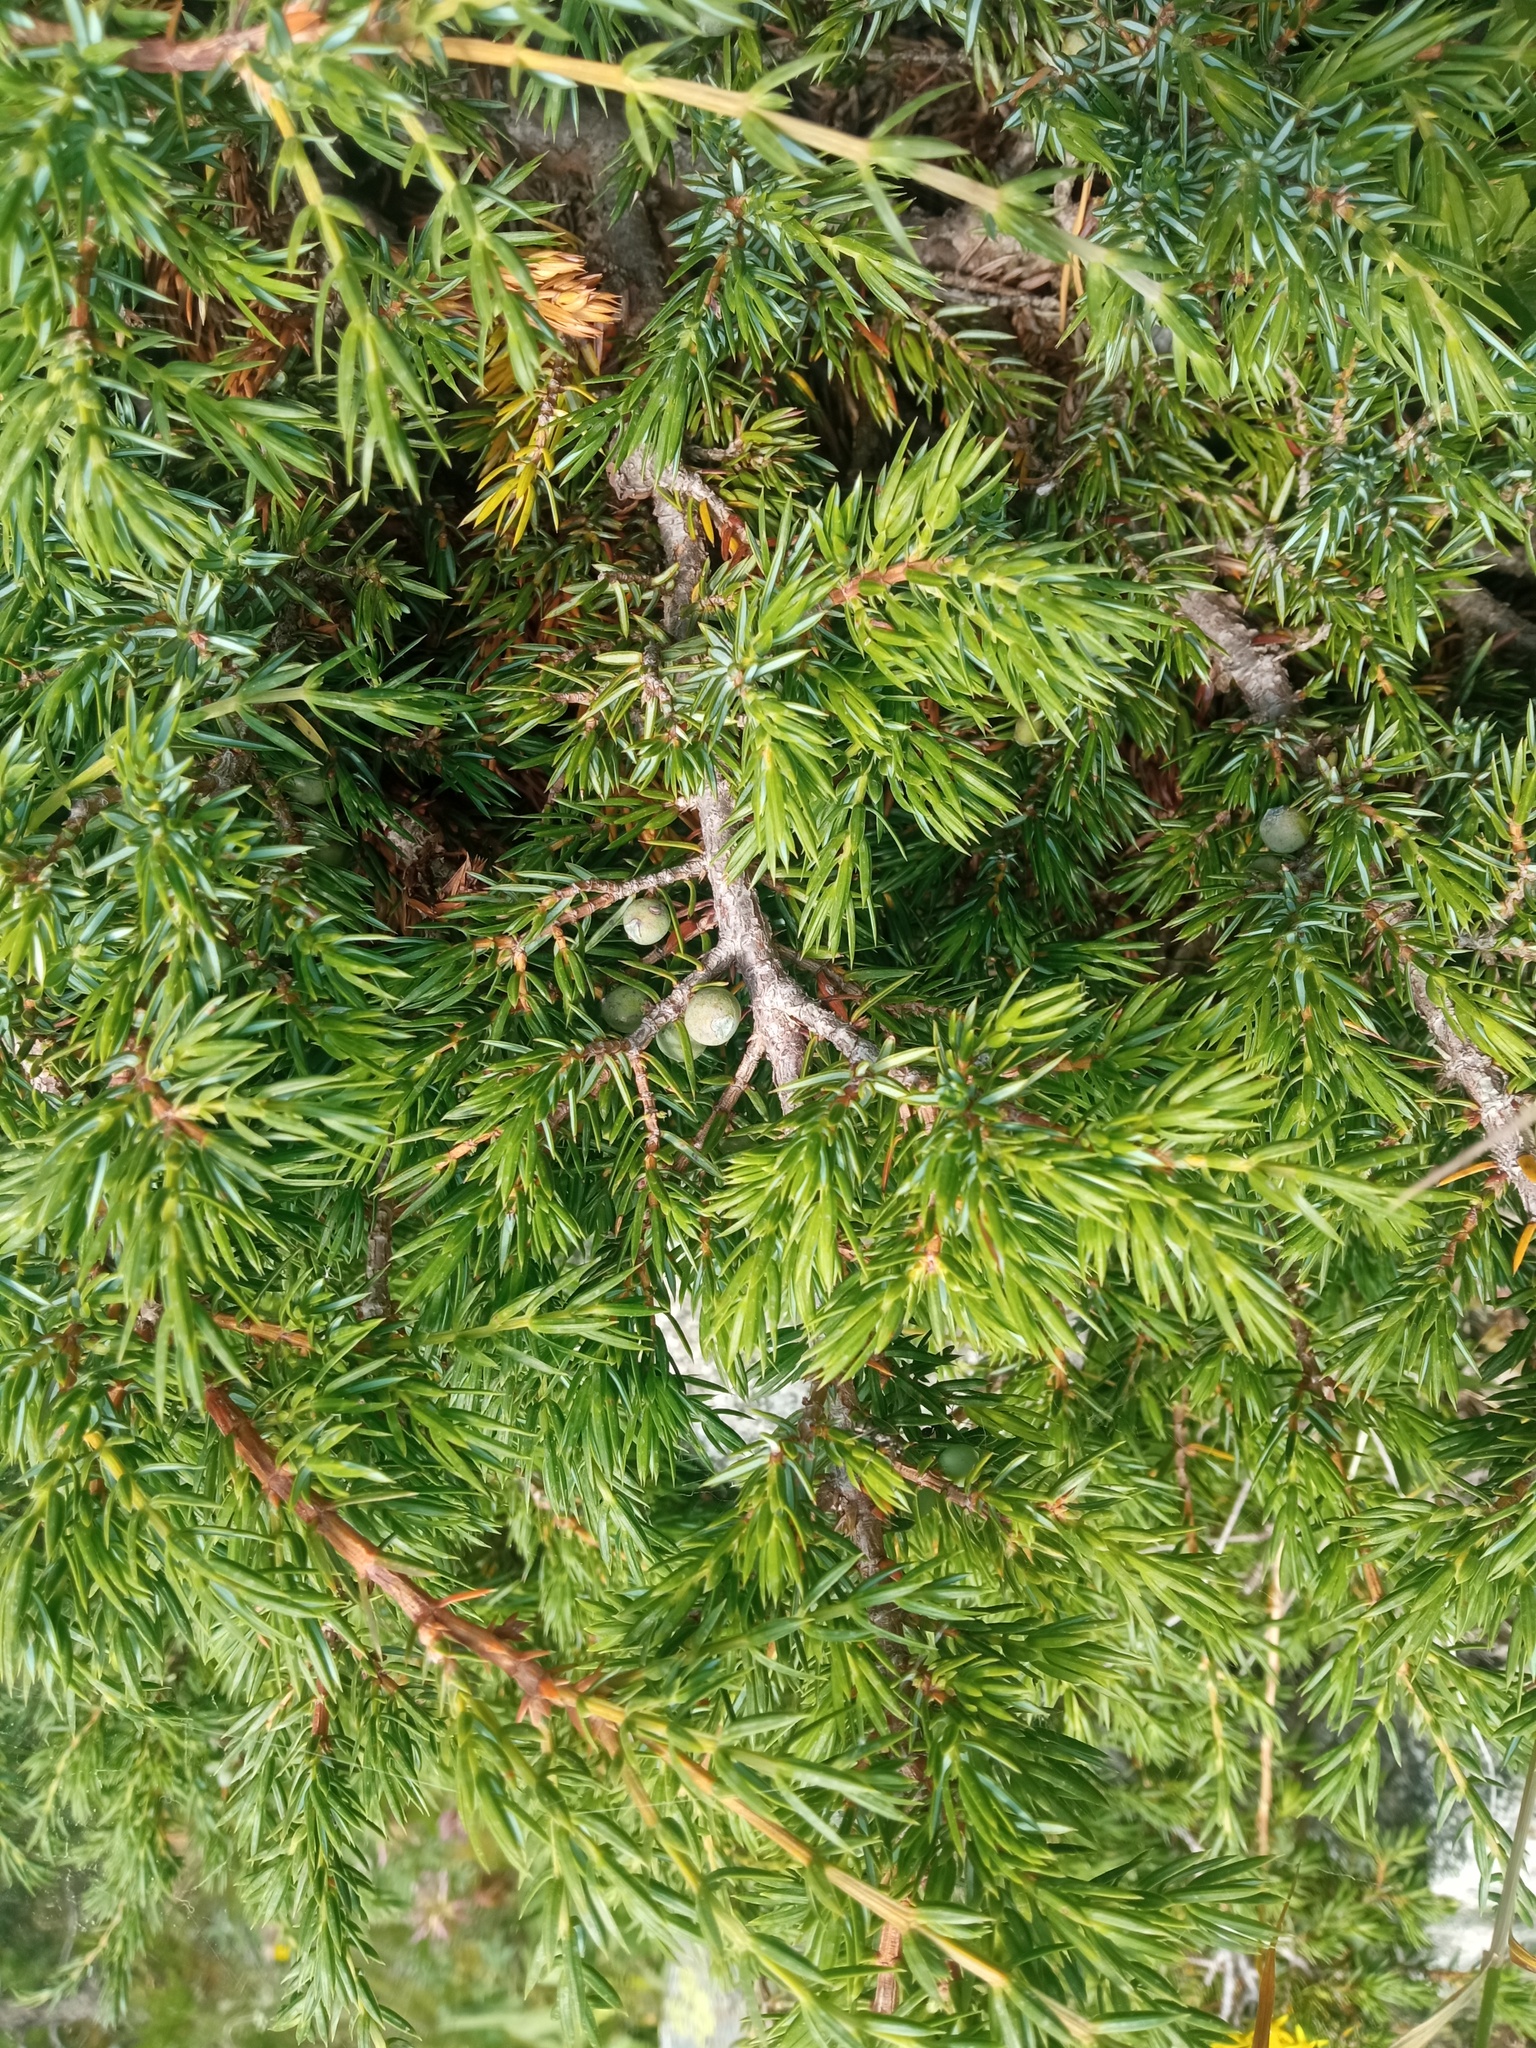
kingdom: Plantae
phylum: Tracheophyta
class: Pinopsida
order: Pinales
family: Cupressaceae
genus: Juniperus
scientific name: Juniperus communis
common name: Common juniper
